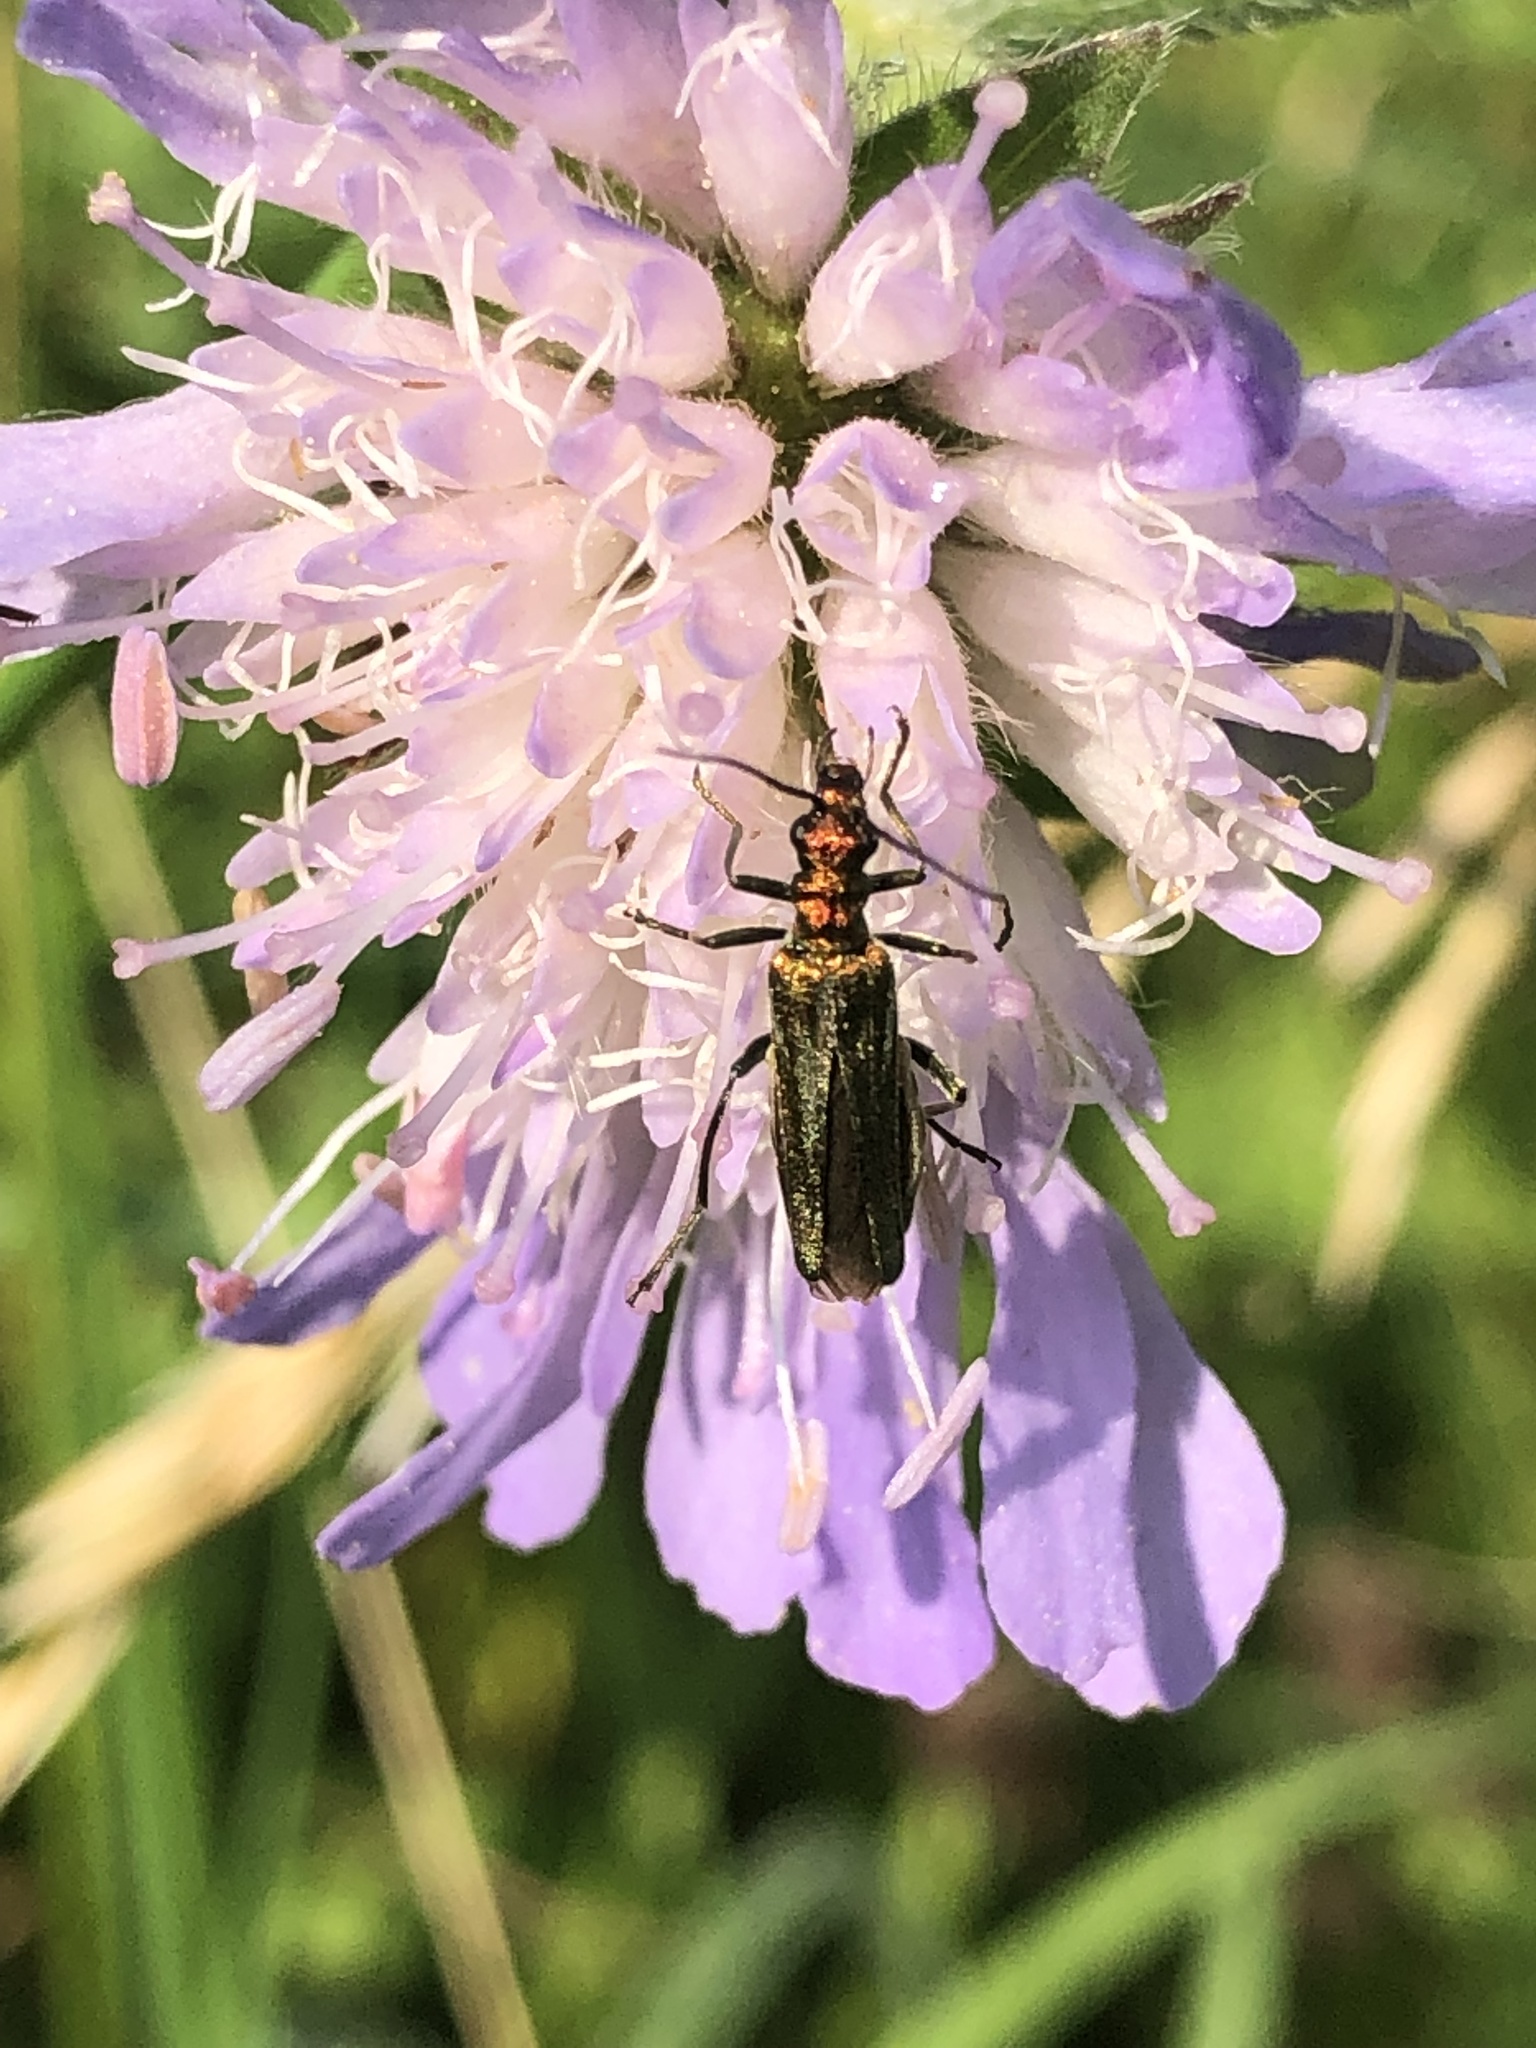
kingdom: Animalia
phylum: Arthropoda
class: Insecta
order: Coleoptera
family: Oedemeridae
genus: Oedemera
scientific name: Oedemera nobilis
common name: Swollen-thighed beetle
